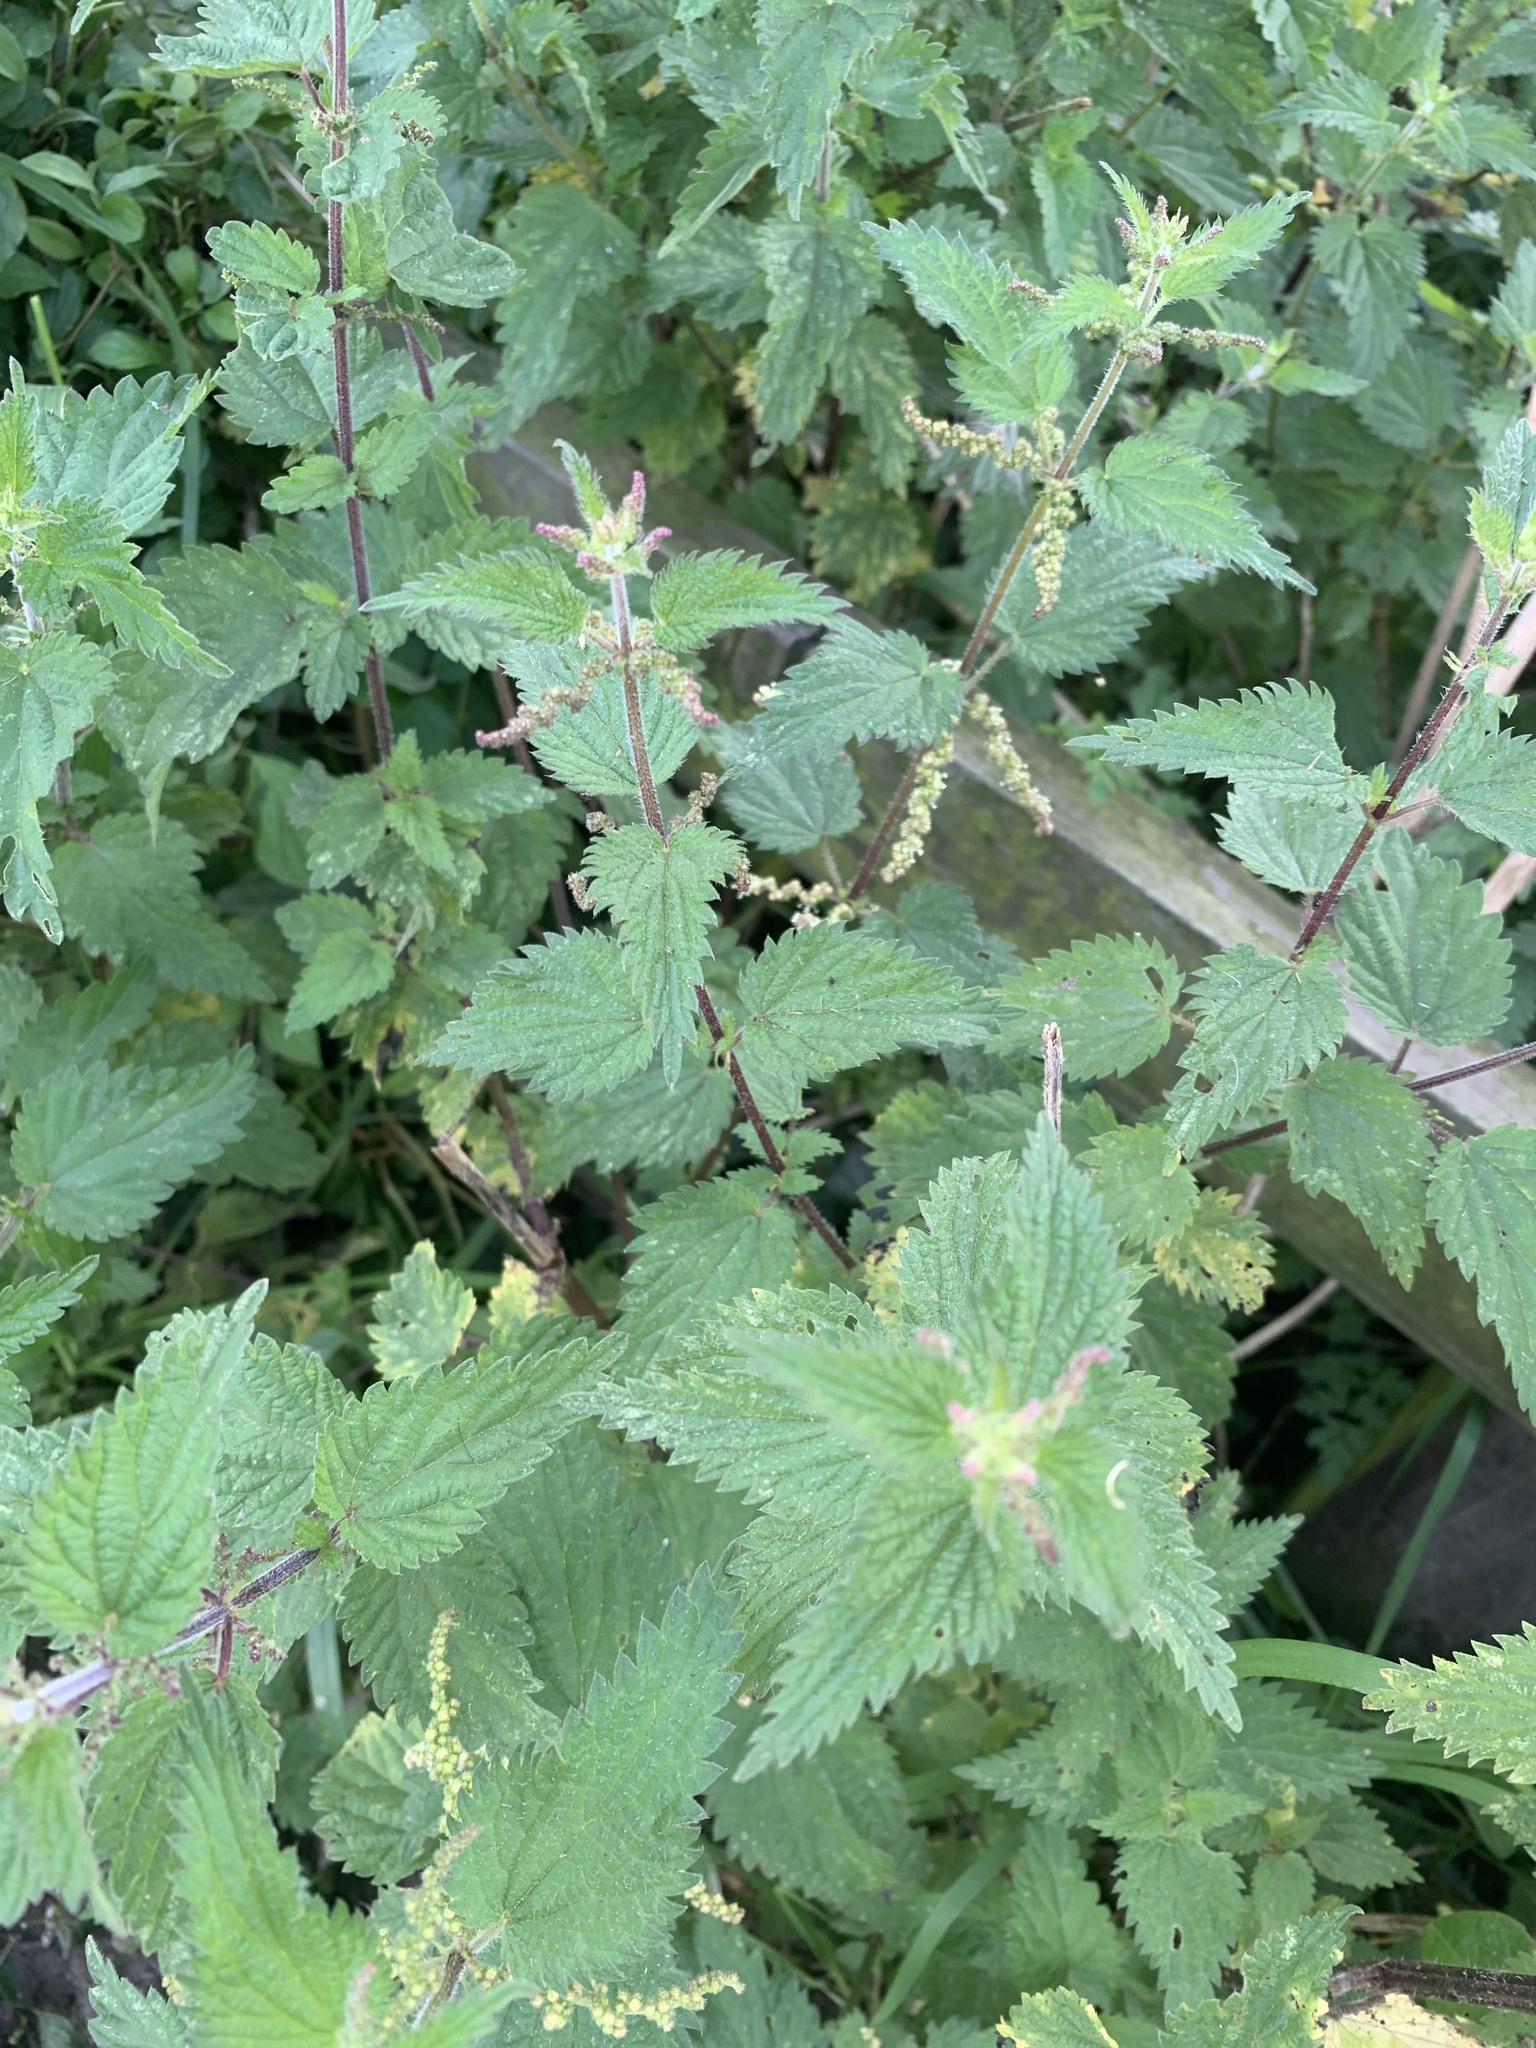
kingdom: Plantae
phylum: Tracheophyta
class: Magnoliopsida
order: Rosales
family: Urticaceae
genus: Urtica
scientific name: Urtica dioica
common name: Common nettle
